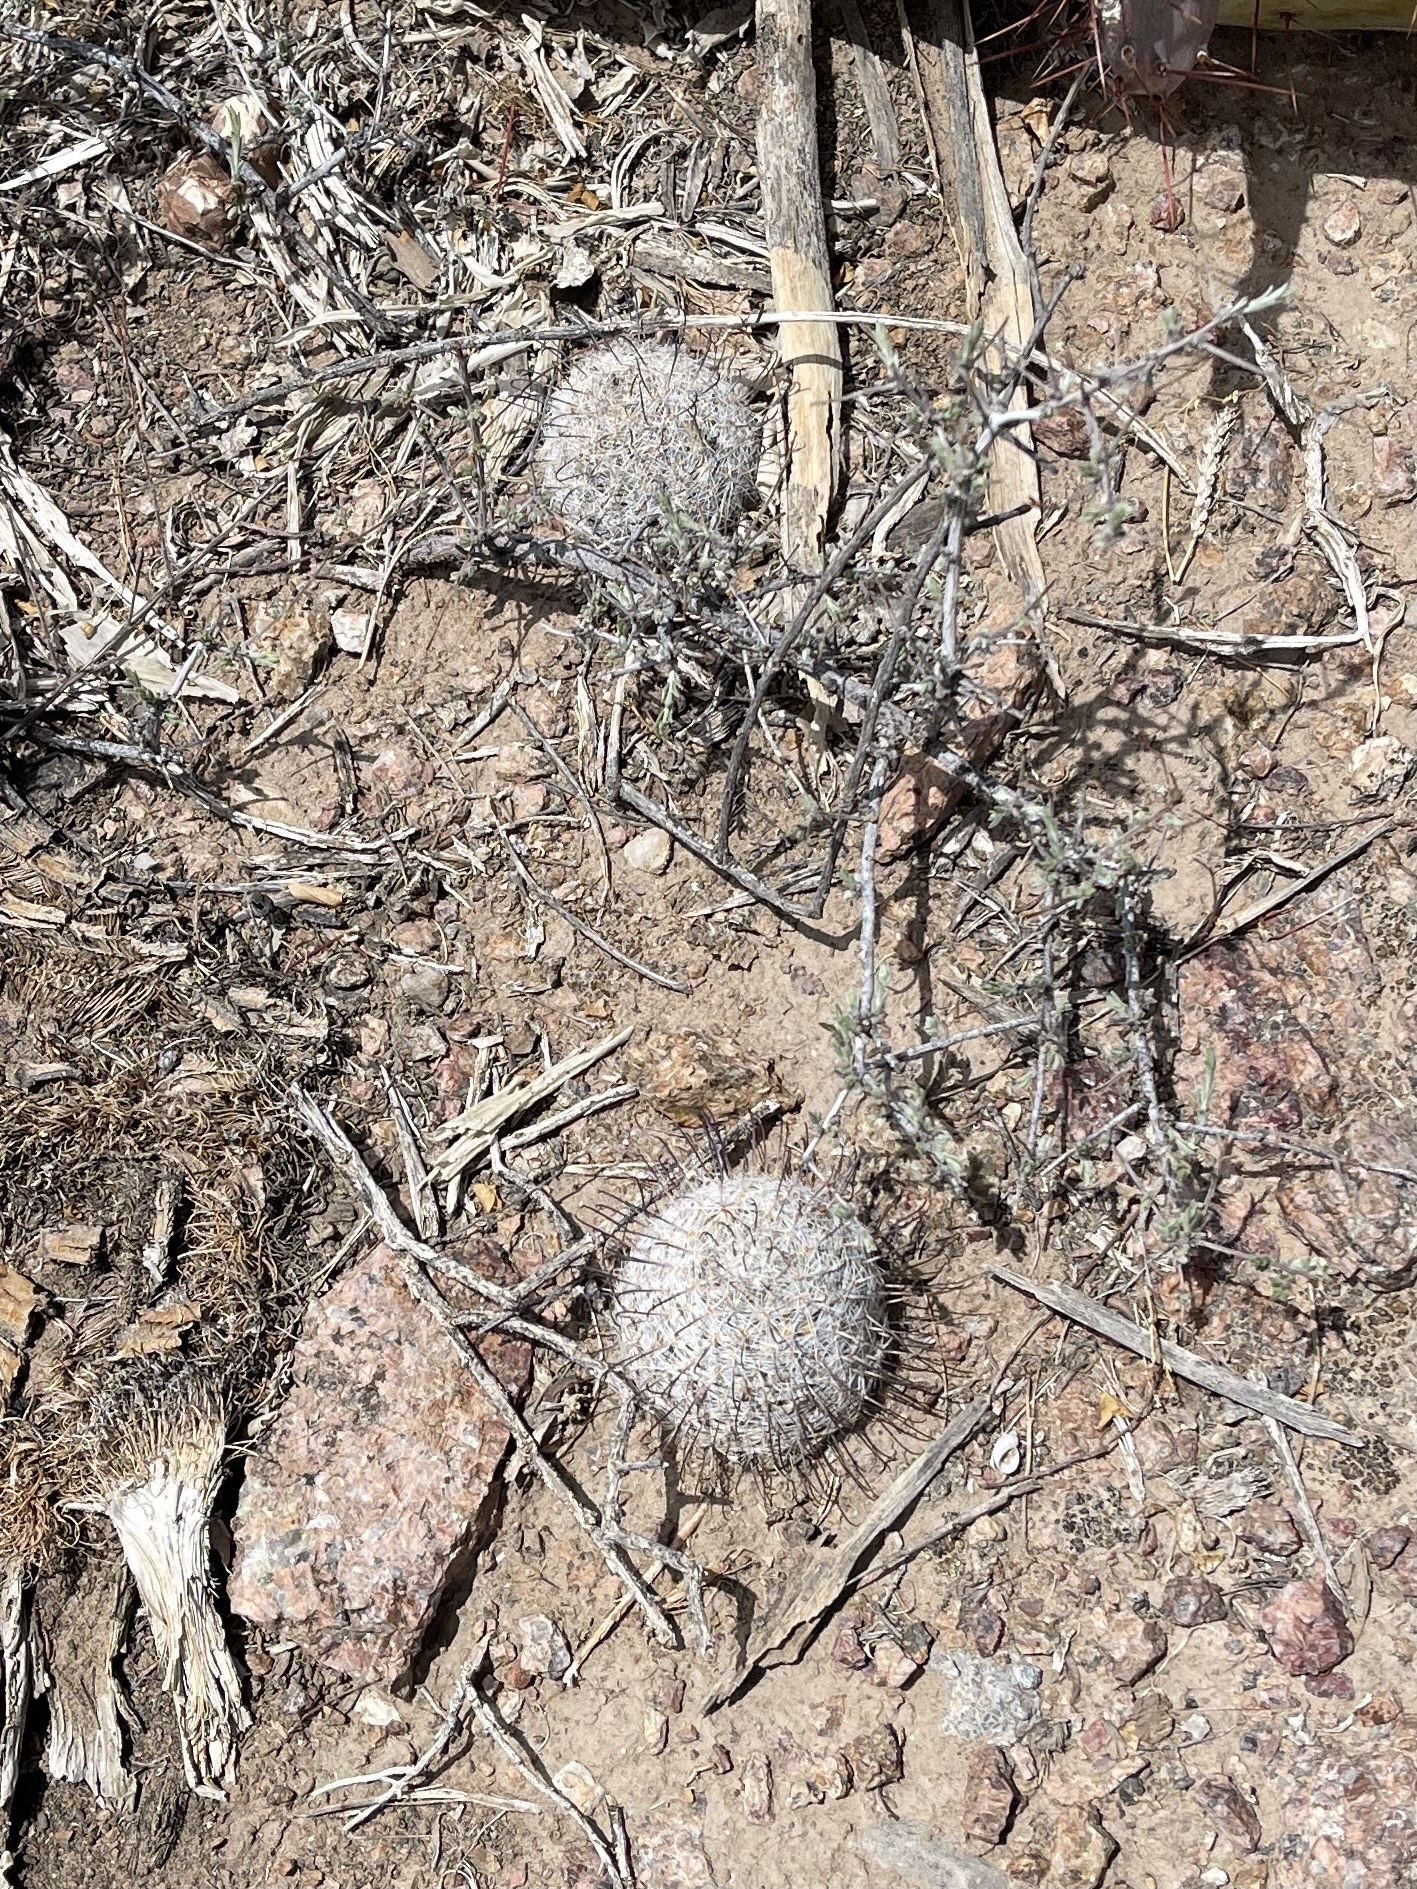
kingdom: Plantae
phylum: Tracheophyta
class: Magnoliopsida
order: Caryophyllales
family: Cactaceae
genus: Cochemiea
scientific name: Cochemiea grahamii
